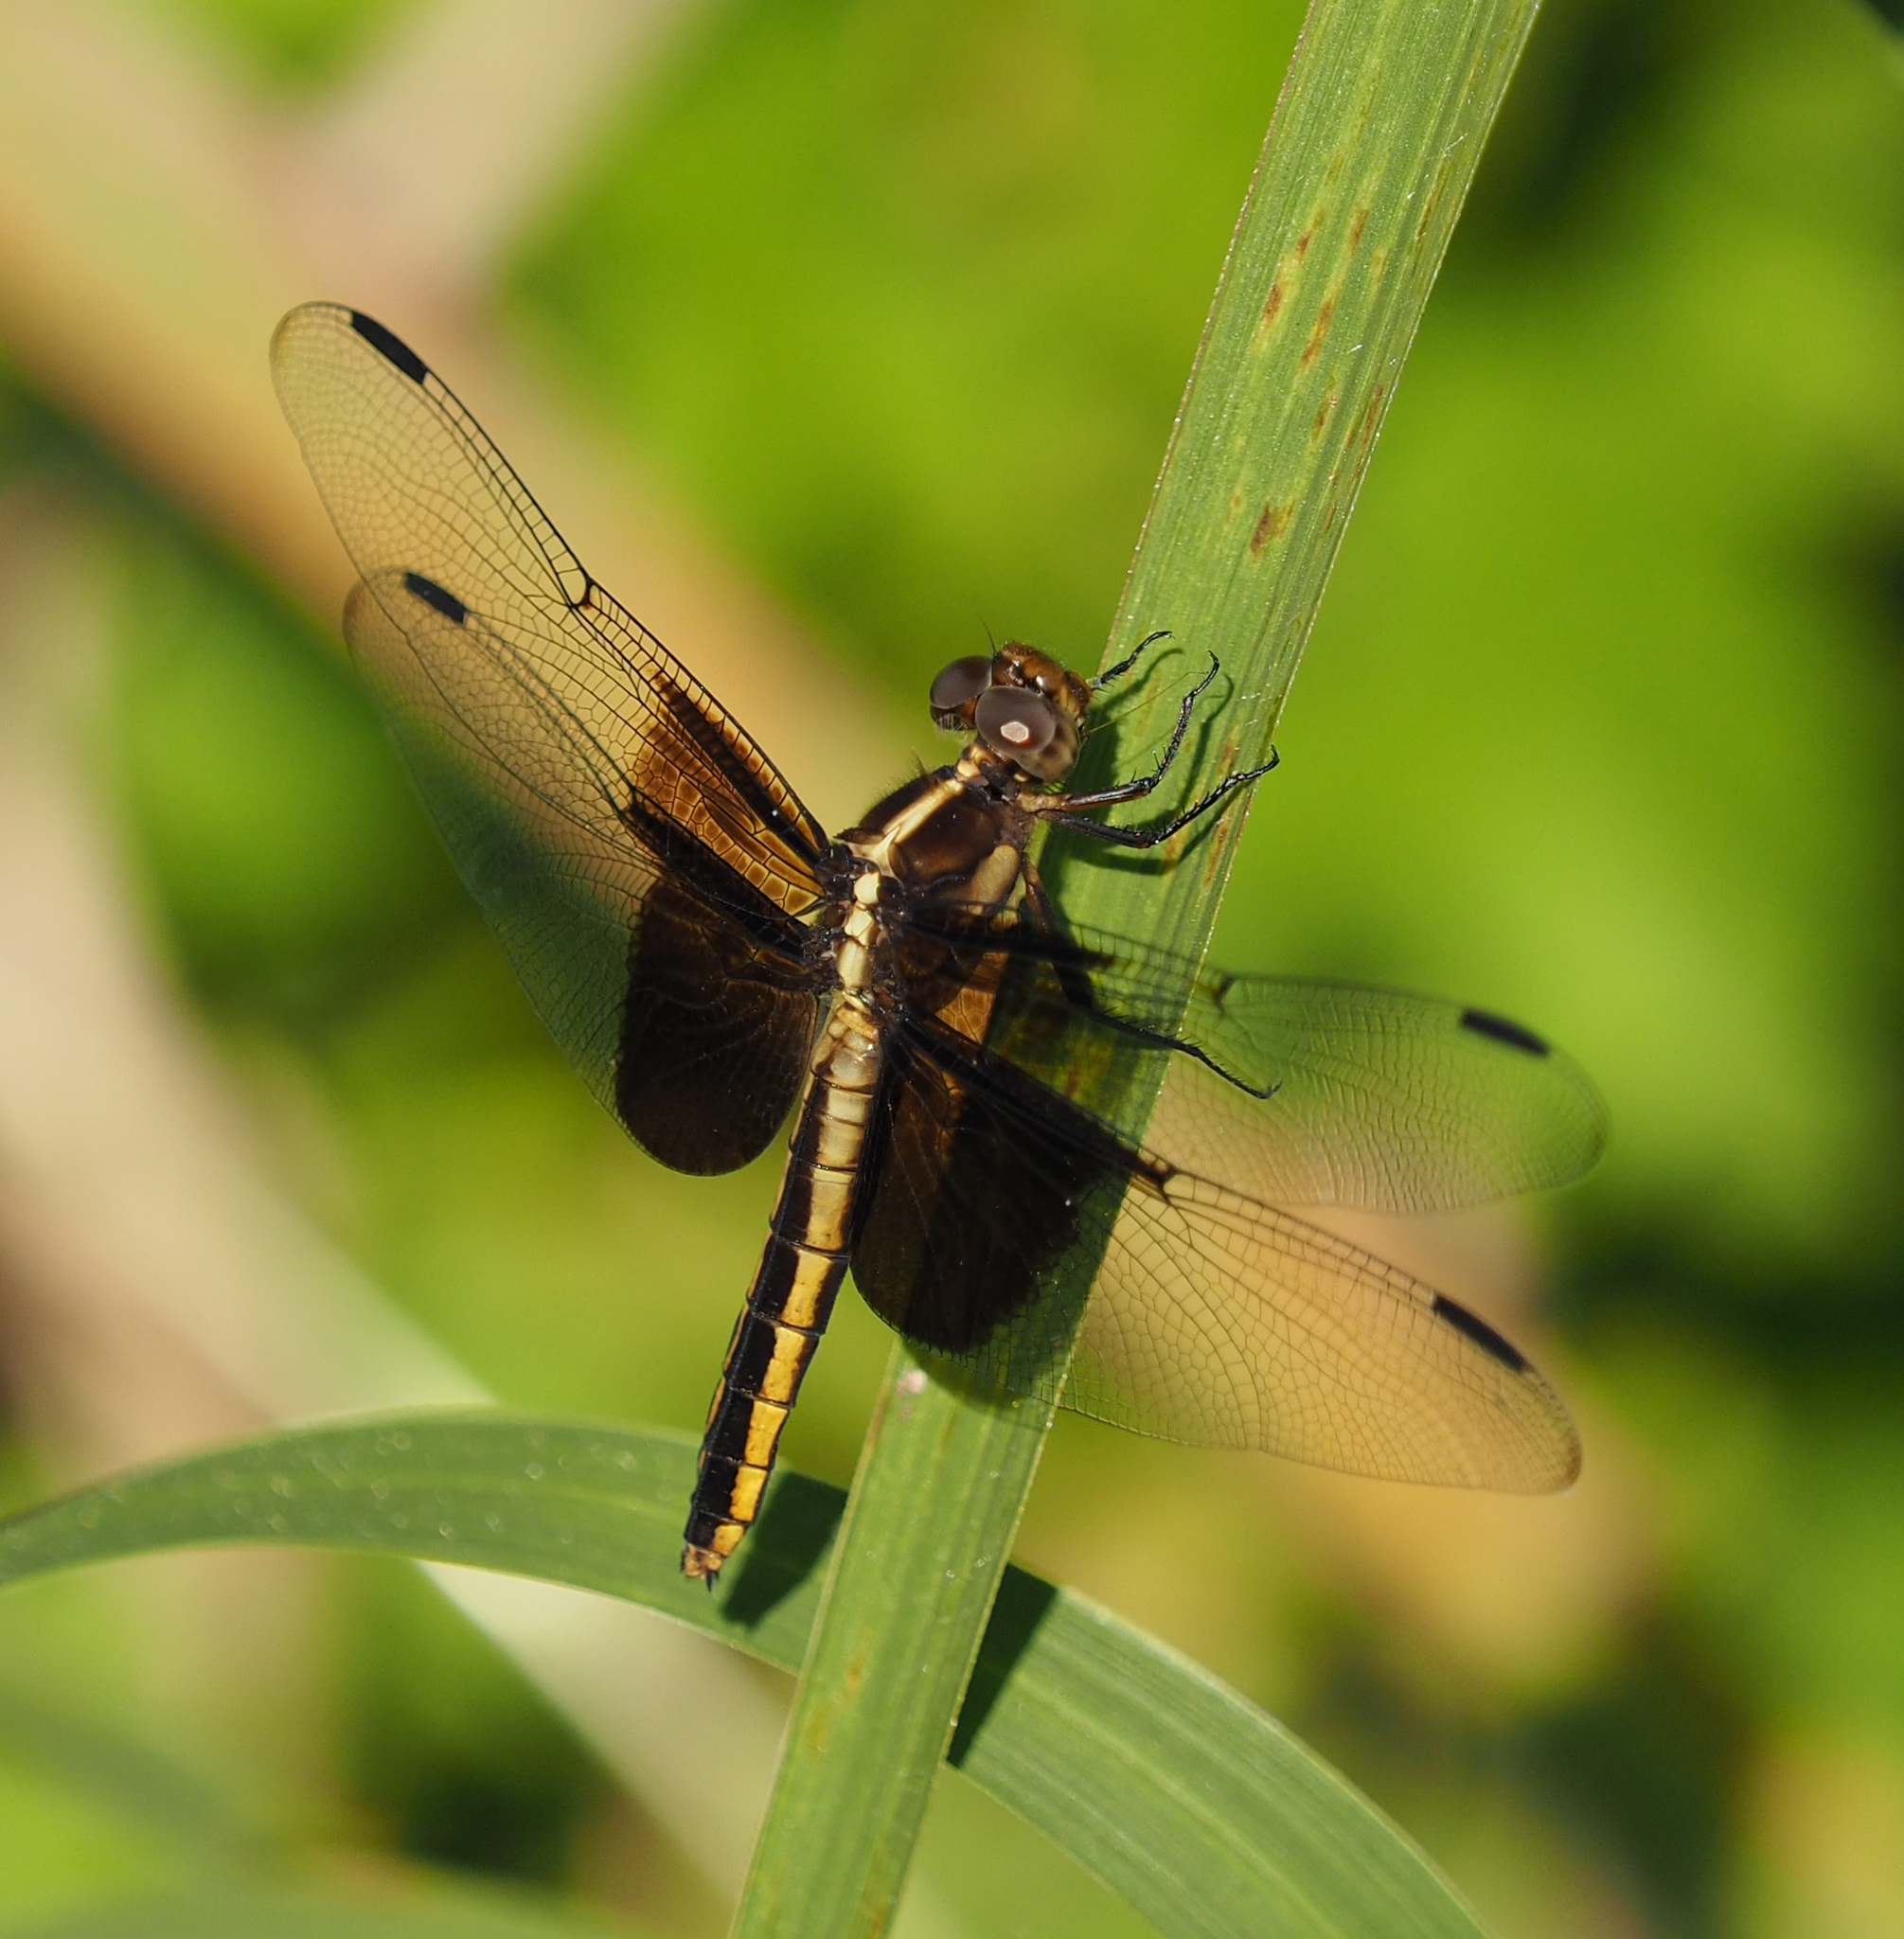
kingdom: Animalia
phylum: Arthropoda
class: Insecta
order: Odonata
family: Libellulidae
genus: Libellula
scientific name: Libellula luctuosa
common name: Widow skimmer
